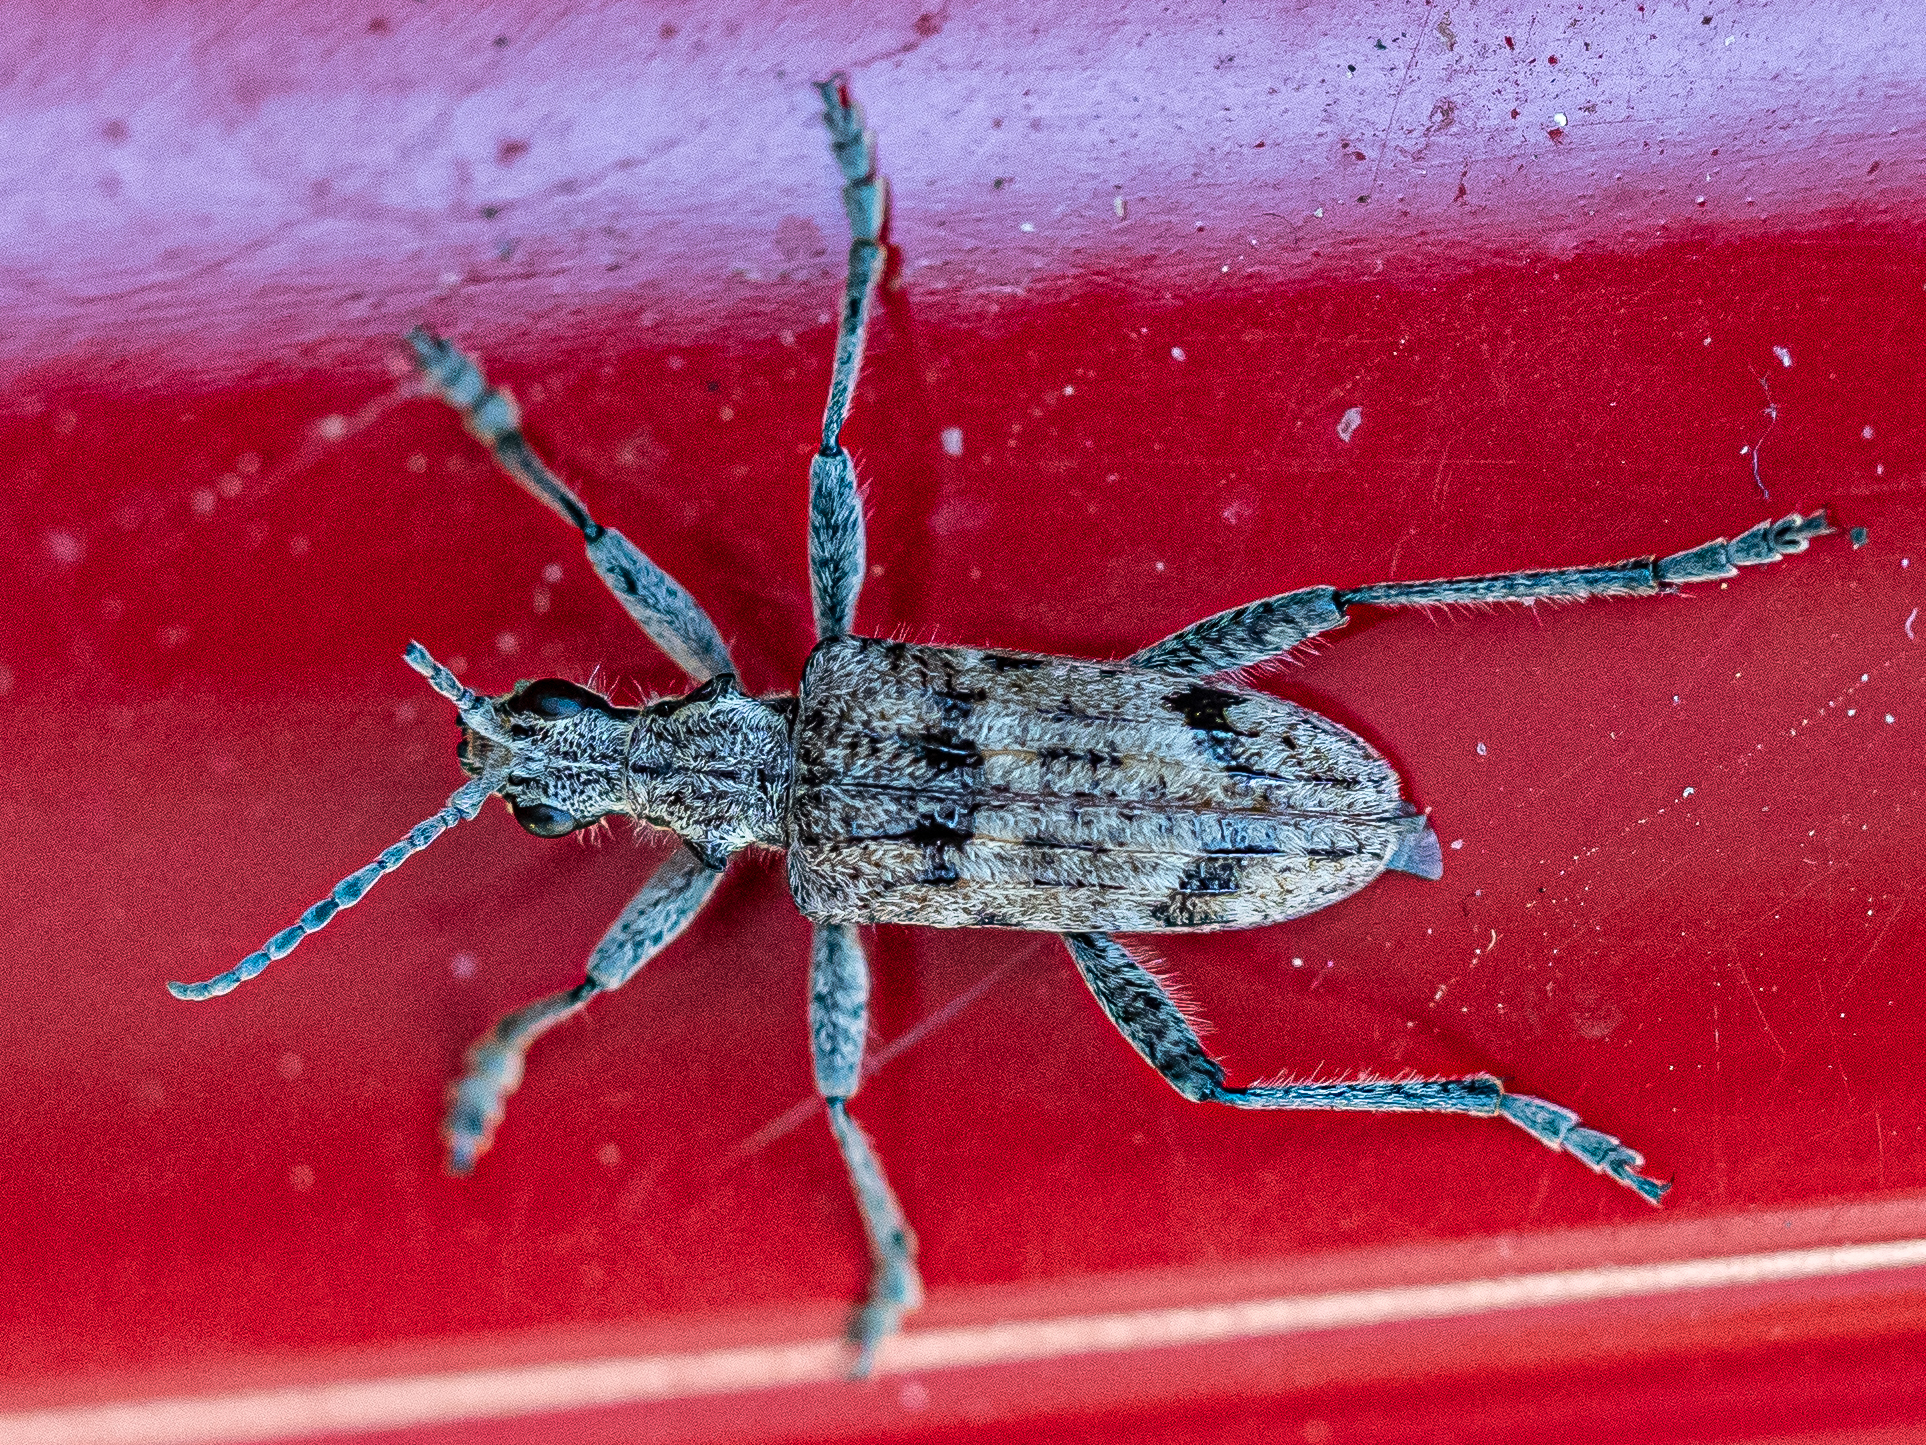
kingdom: Animalia
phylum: Arthropoda
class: Insecta
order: Coleoptera
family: Cerambycidae
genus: Rhagium
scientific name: Rhagium inquisitor
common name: Ribbed pine borer
